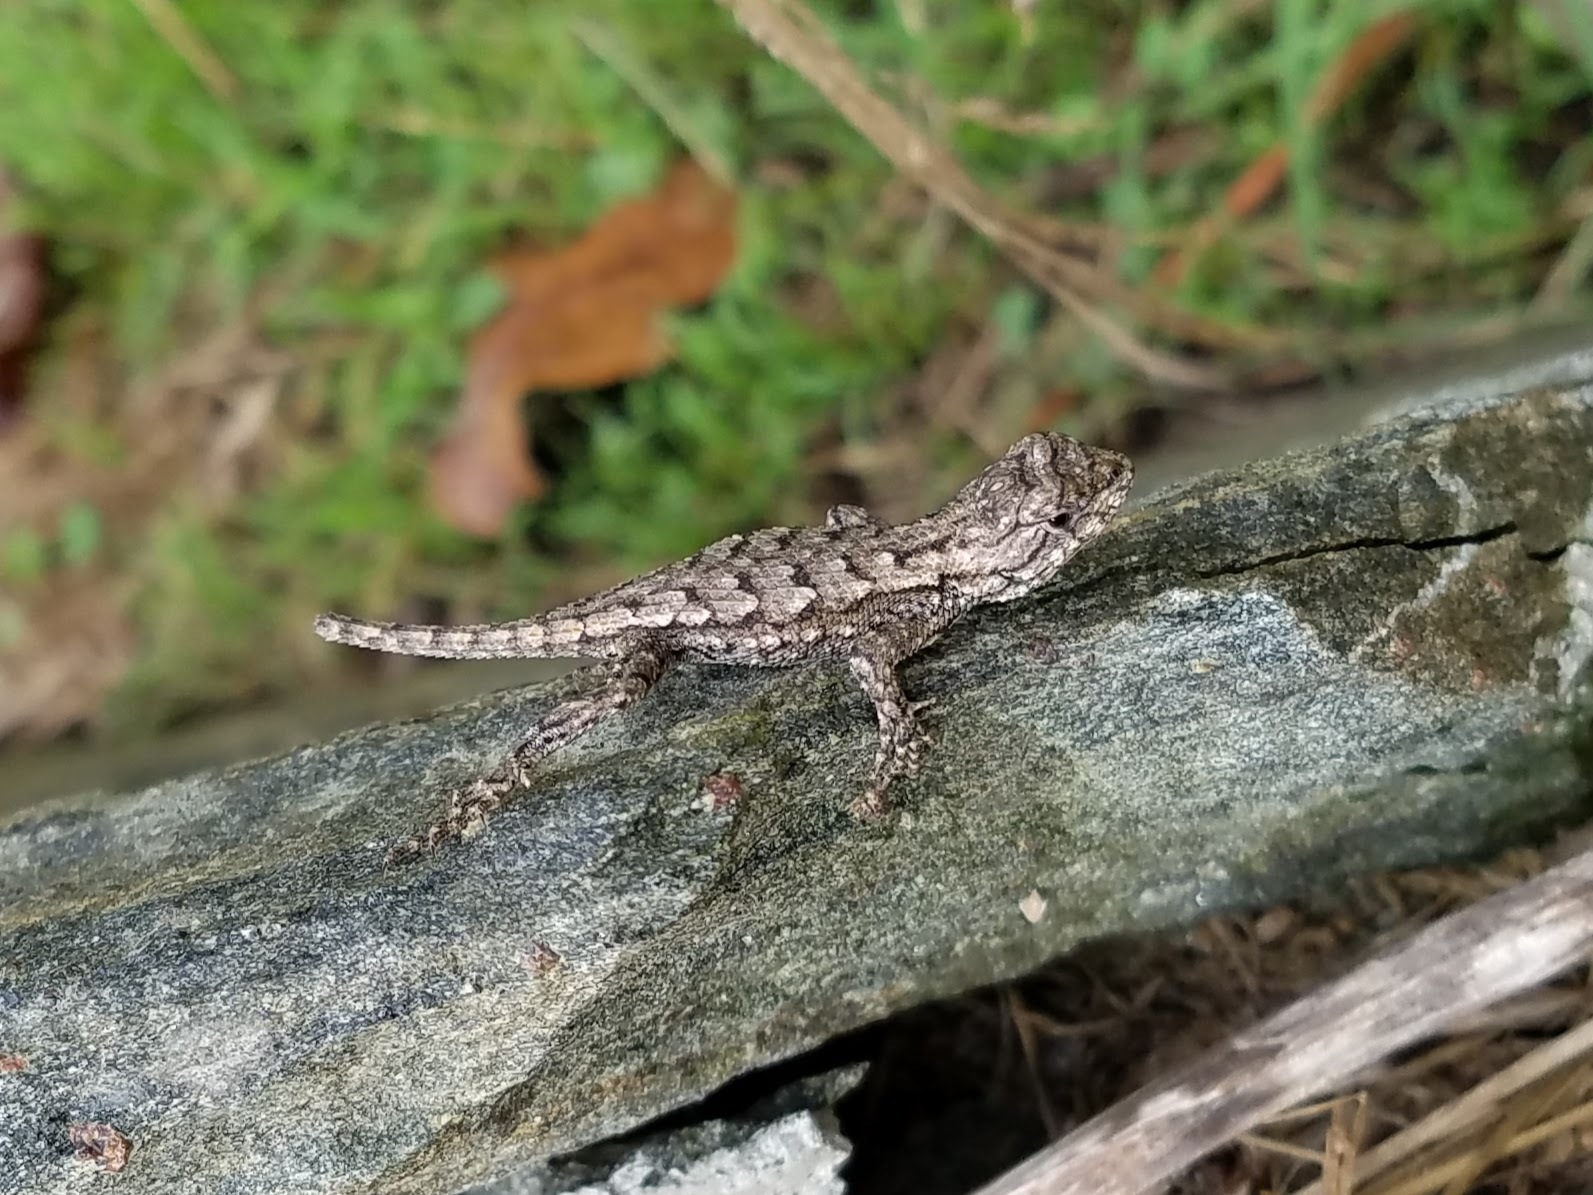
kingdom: Animalia
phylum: Chordata
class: Squamata
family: Phrynosomatidae
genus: Sceloporus
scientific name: Sceloporus undulatus
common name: Eastern fence lizard
